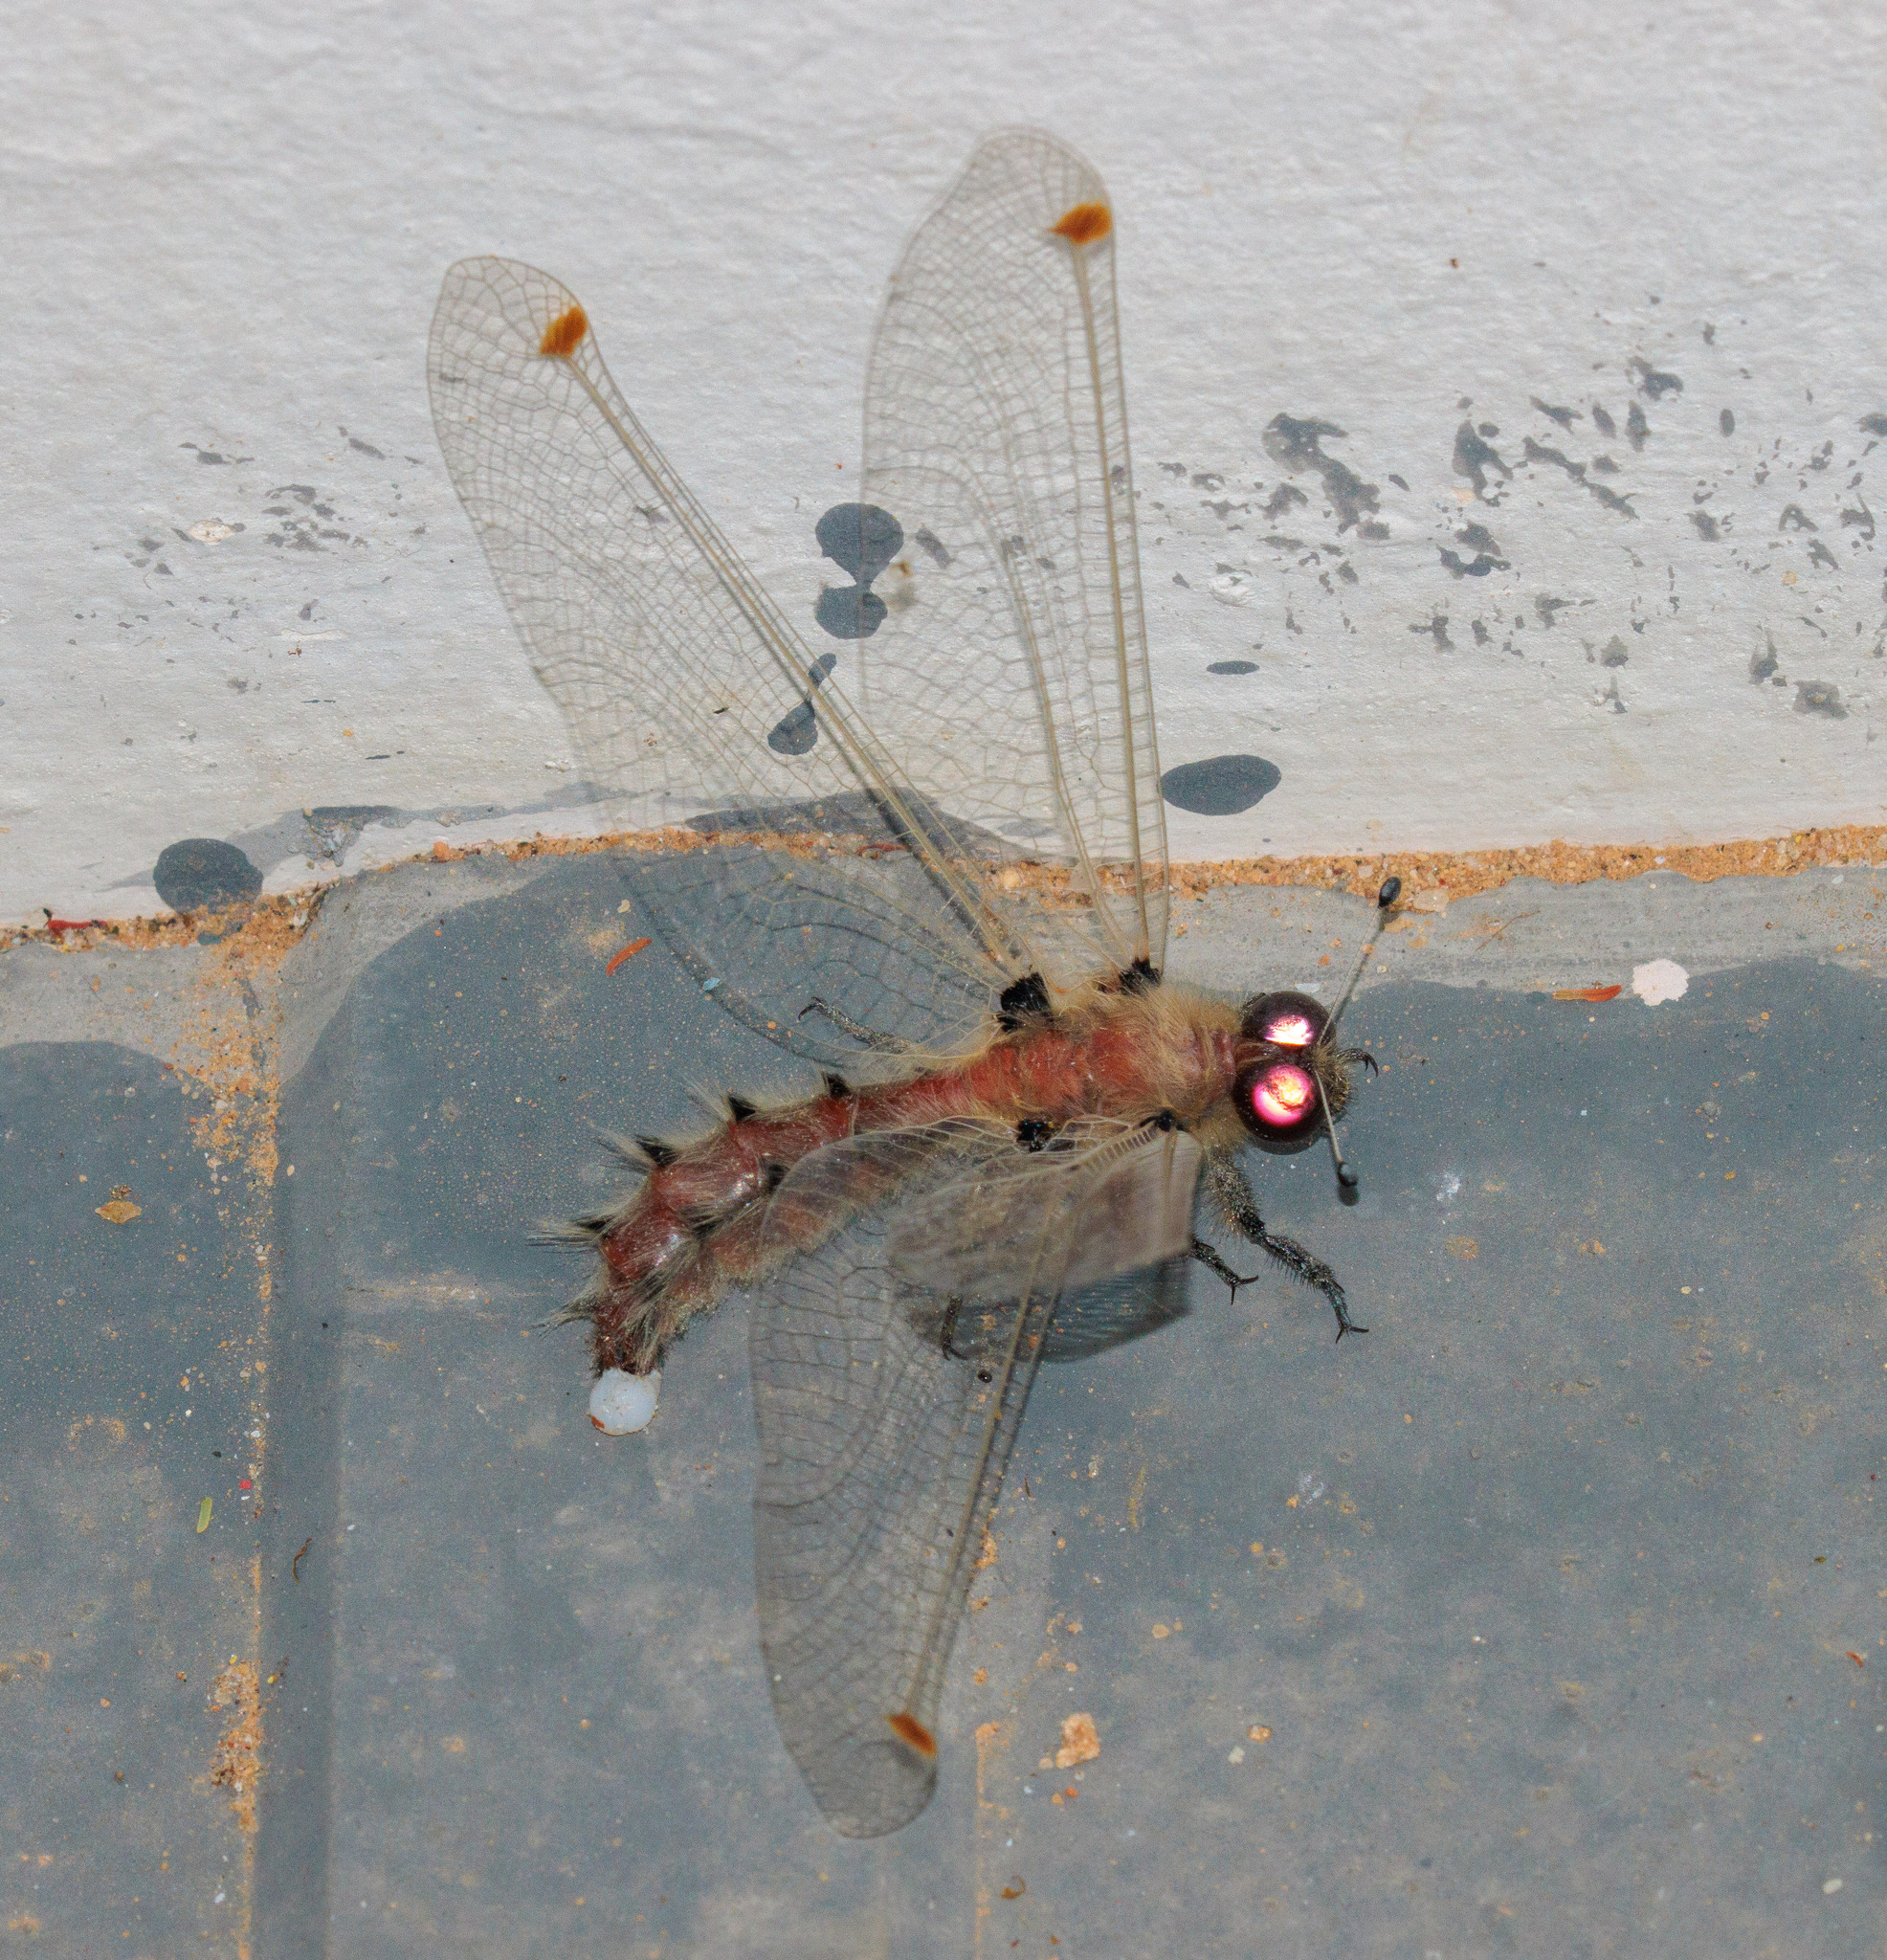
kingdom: Animalia
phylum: Arthropoda
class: Insecta
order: Neuroptera
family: Ascalaphidae
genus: Albardia
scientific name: Albardia furcata
